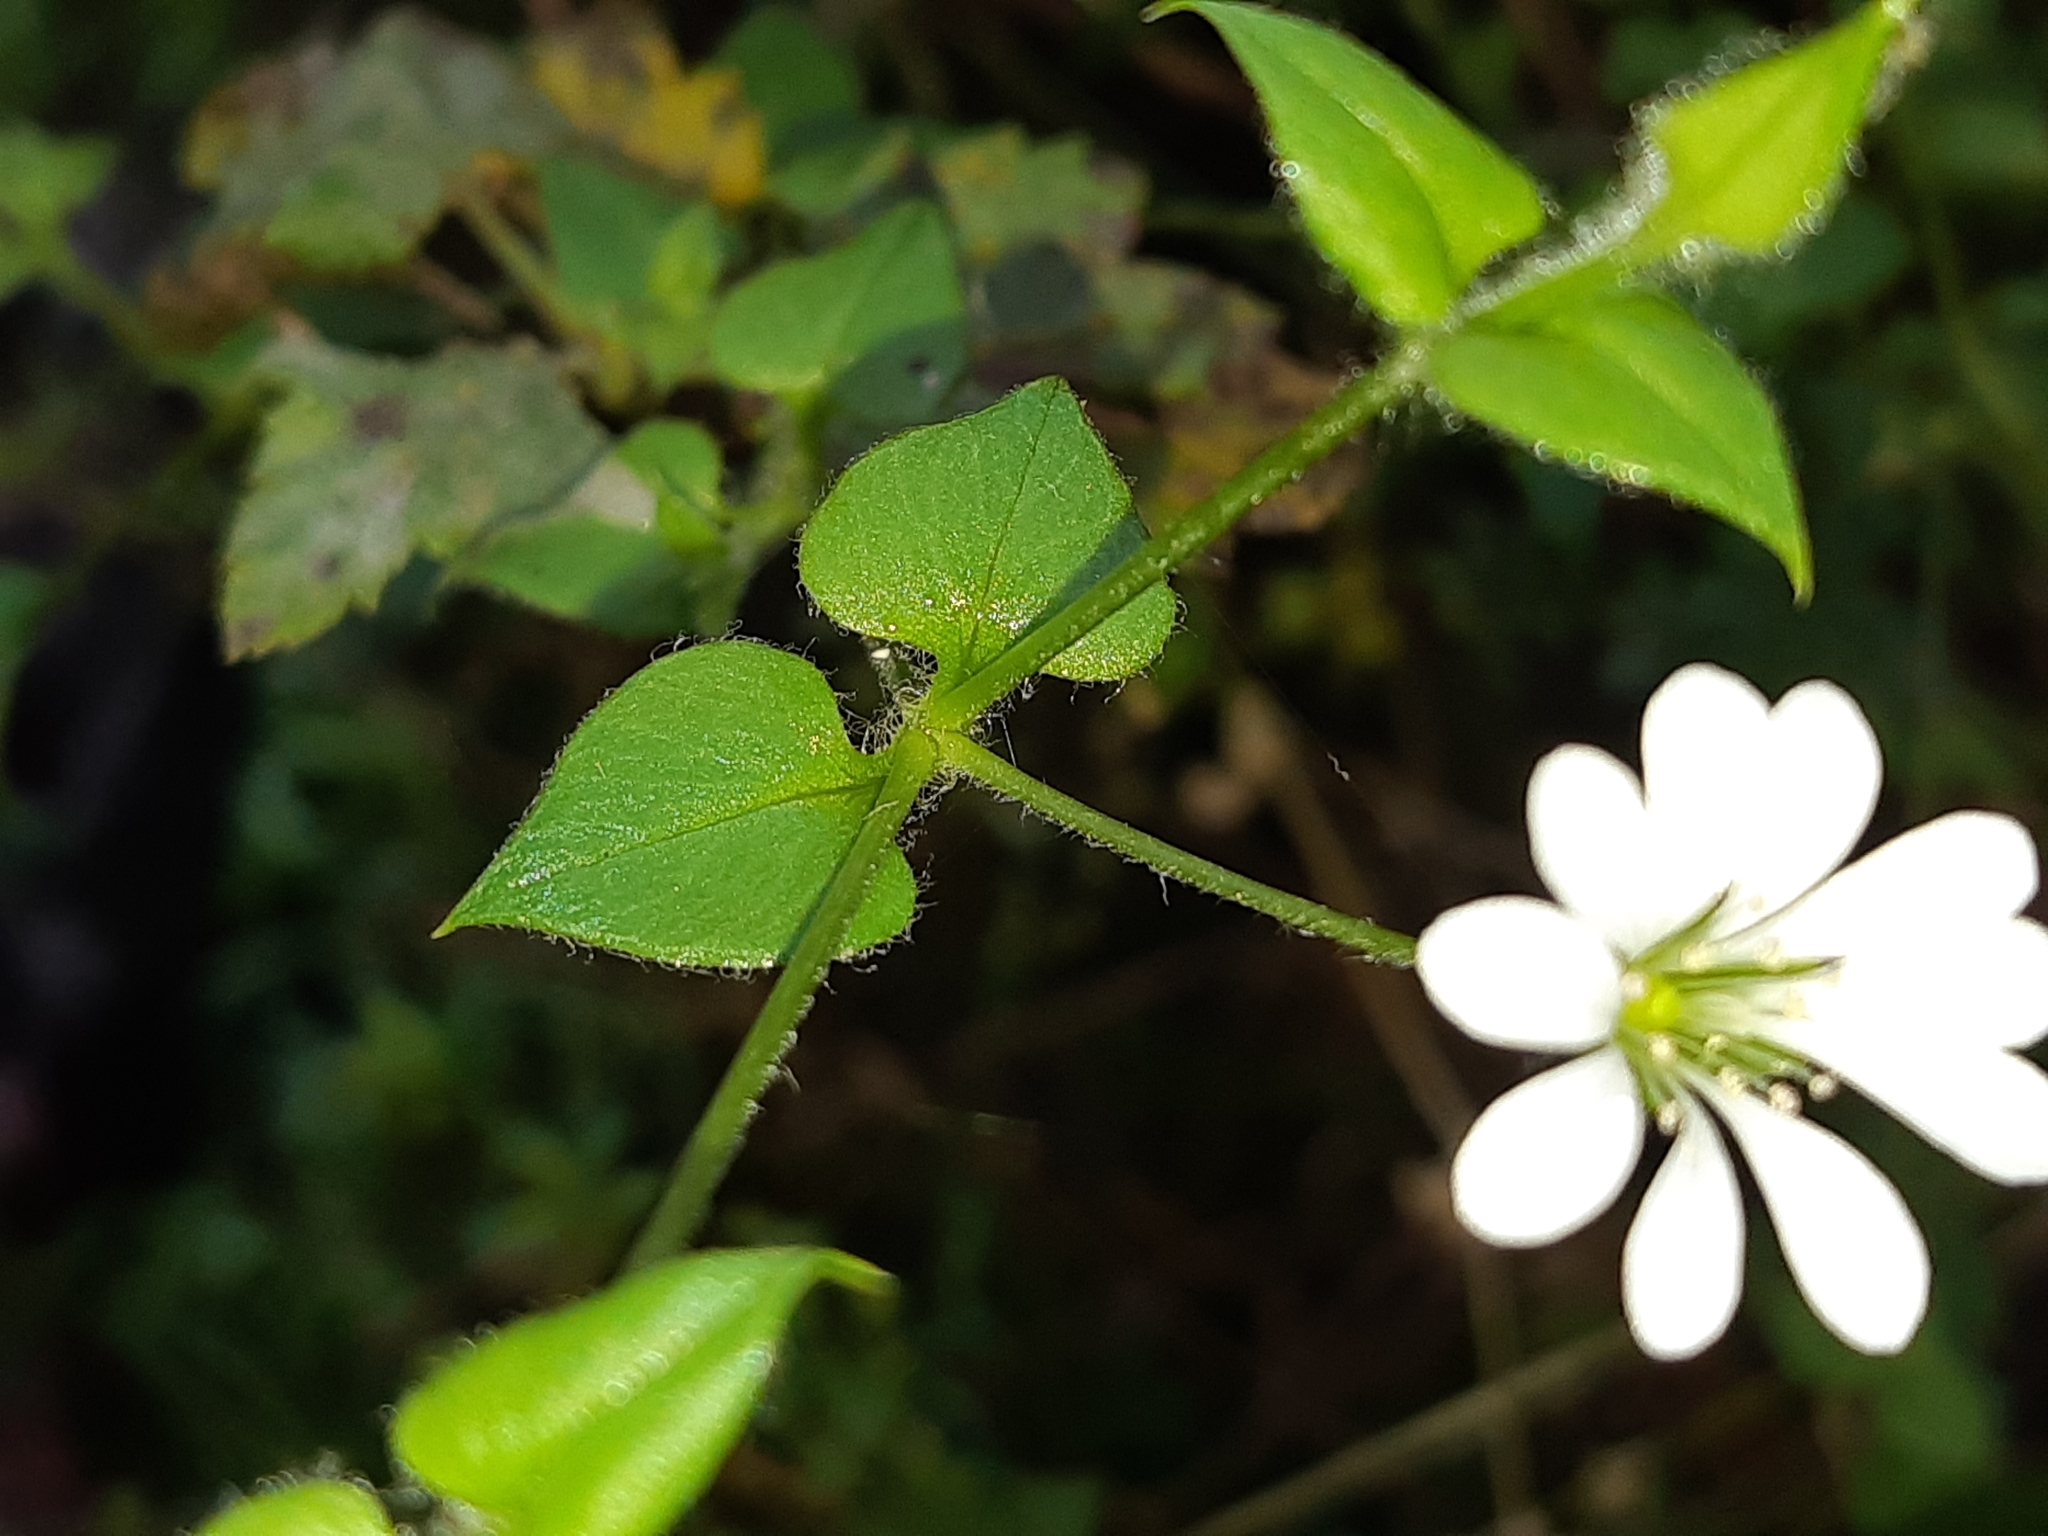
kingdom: Plantae
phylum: Tracheophyta
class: Magnoliopsida
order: Caryophyllales
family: Caryophyllaceae
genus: Stellaria
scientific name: Stellaria cuspidata
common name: Mexican chickweed
